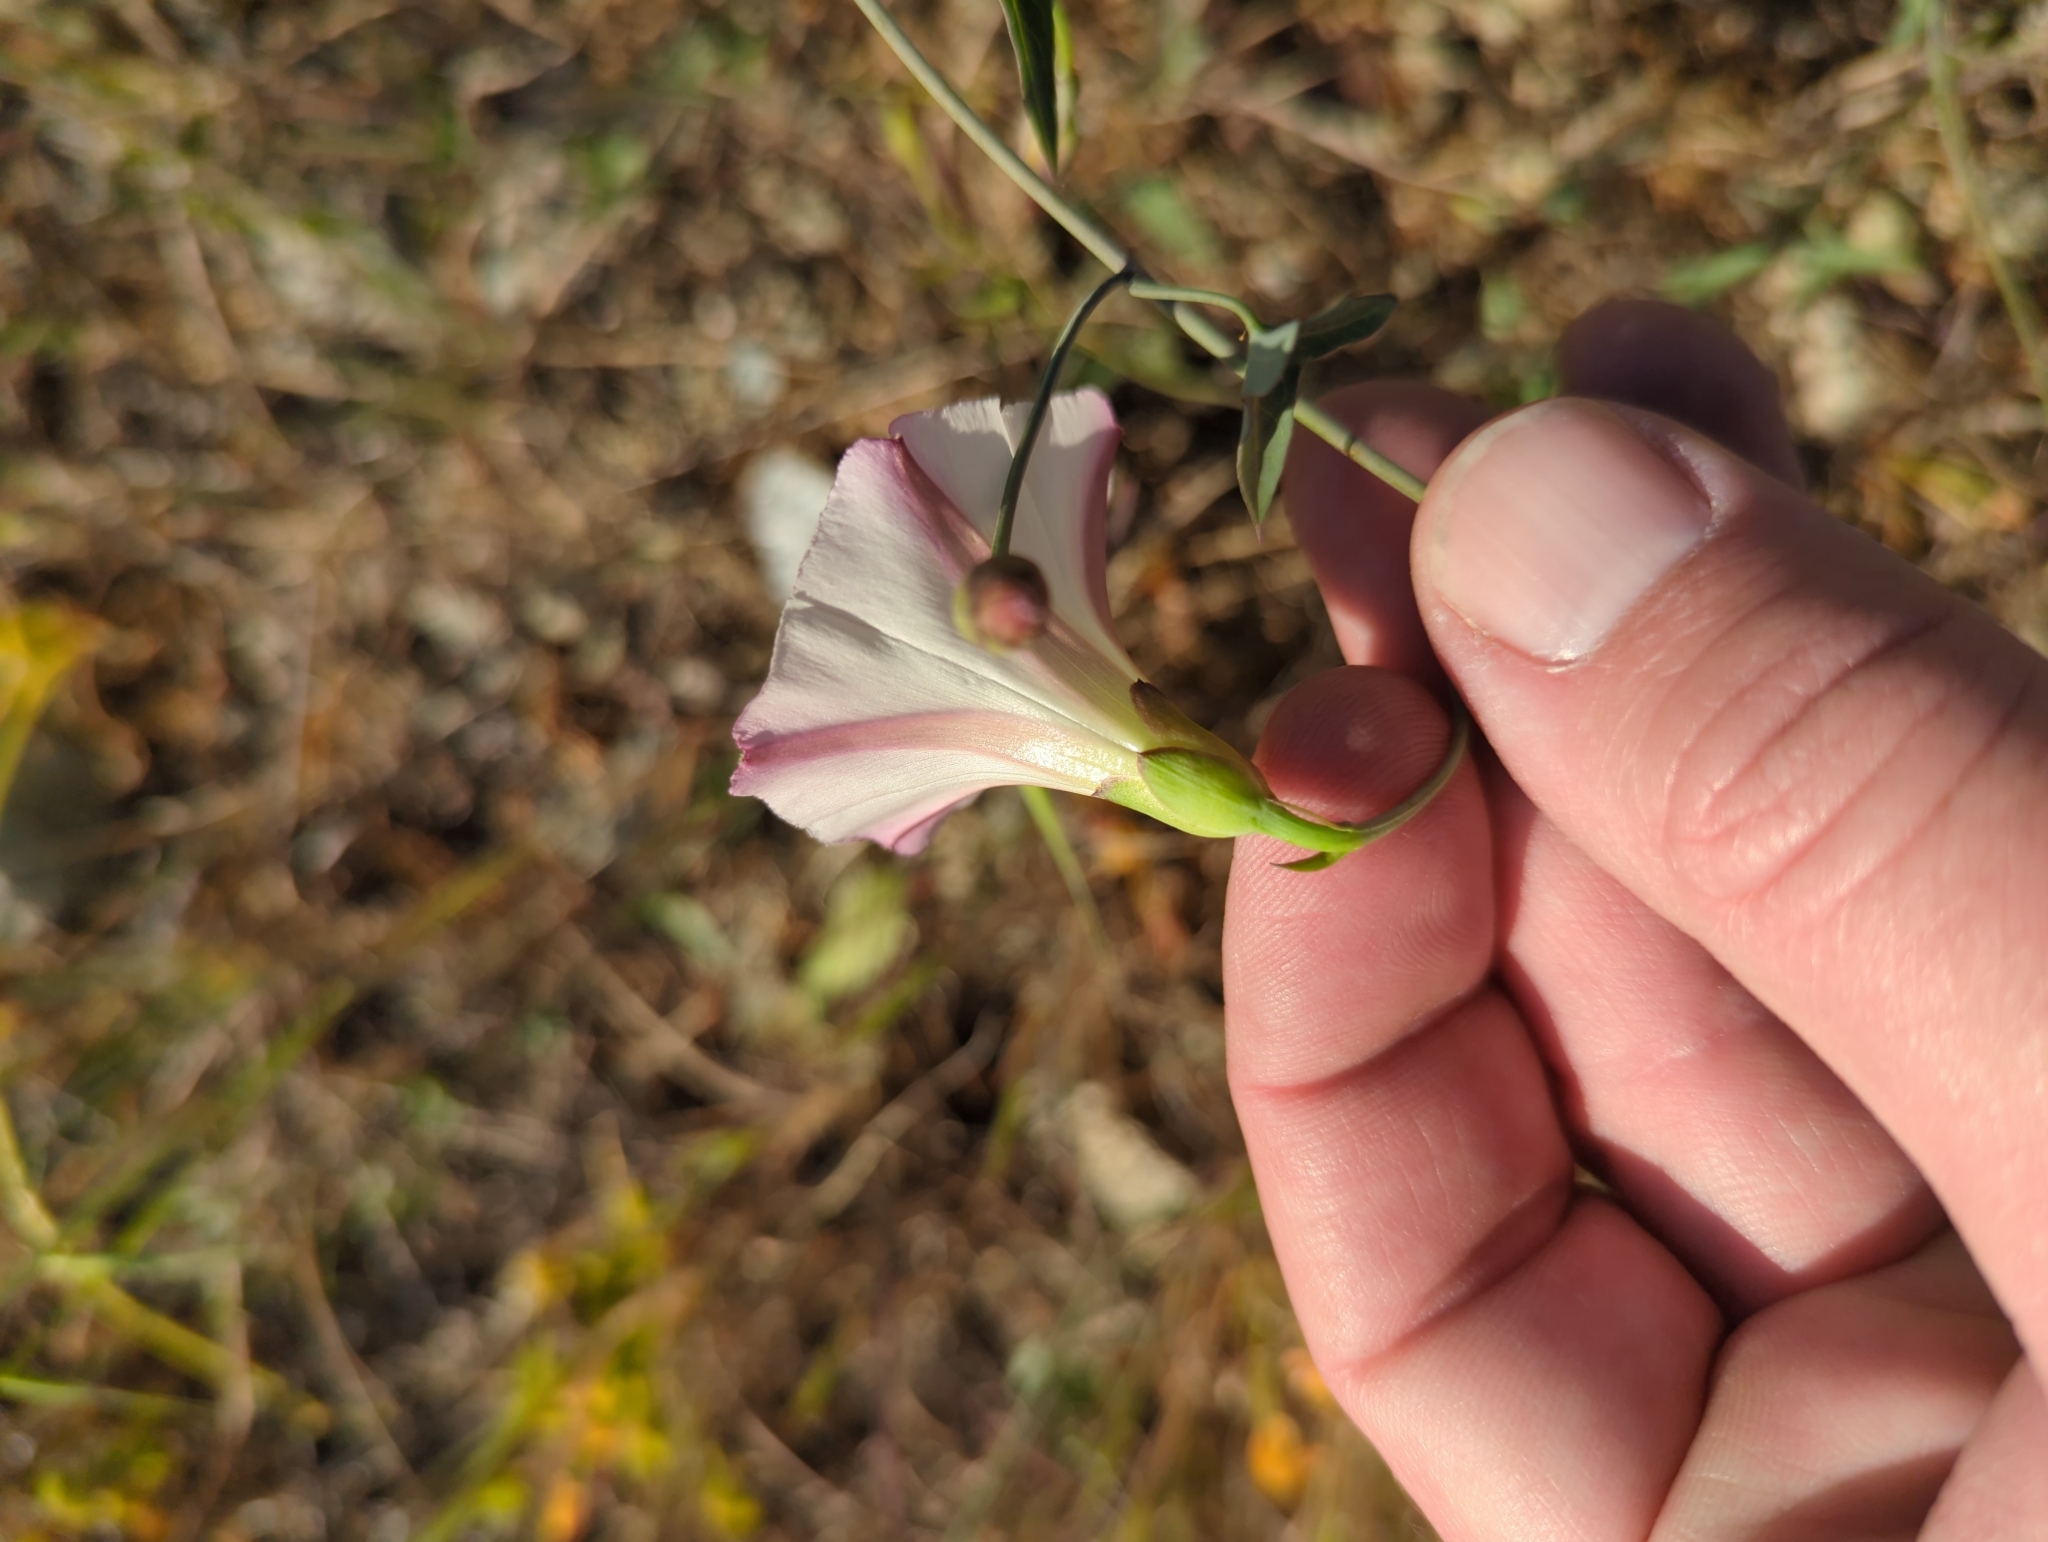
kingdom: Plantae
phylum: Tracheophyta
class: Magnoliopsida
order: Solanales
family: Convolvulaceae
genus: Calystegia
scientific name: Calystegia purpurata
